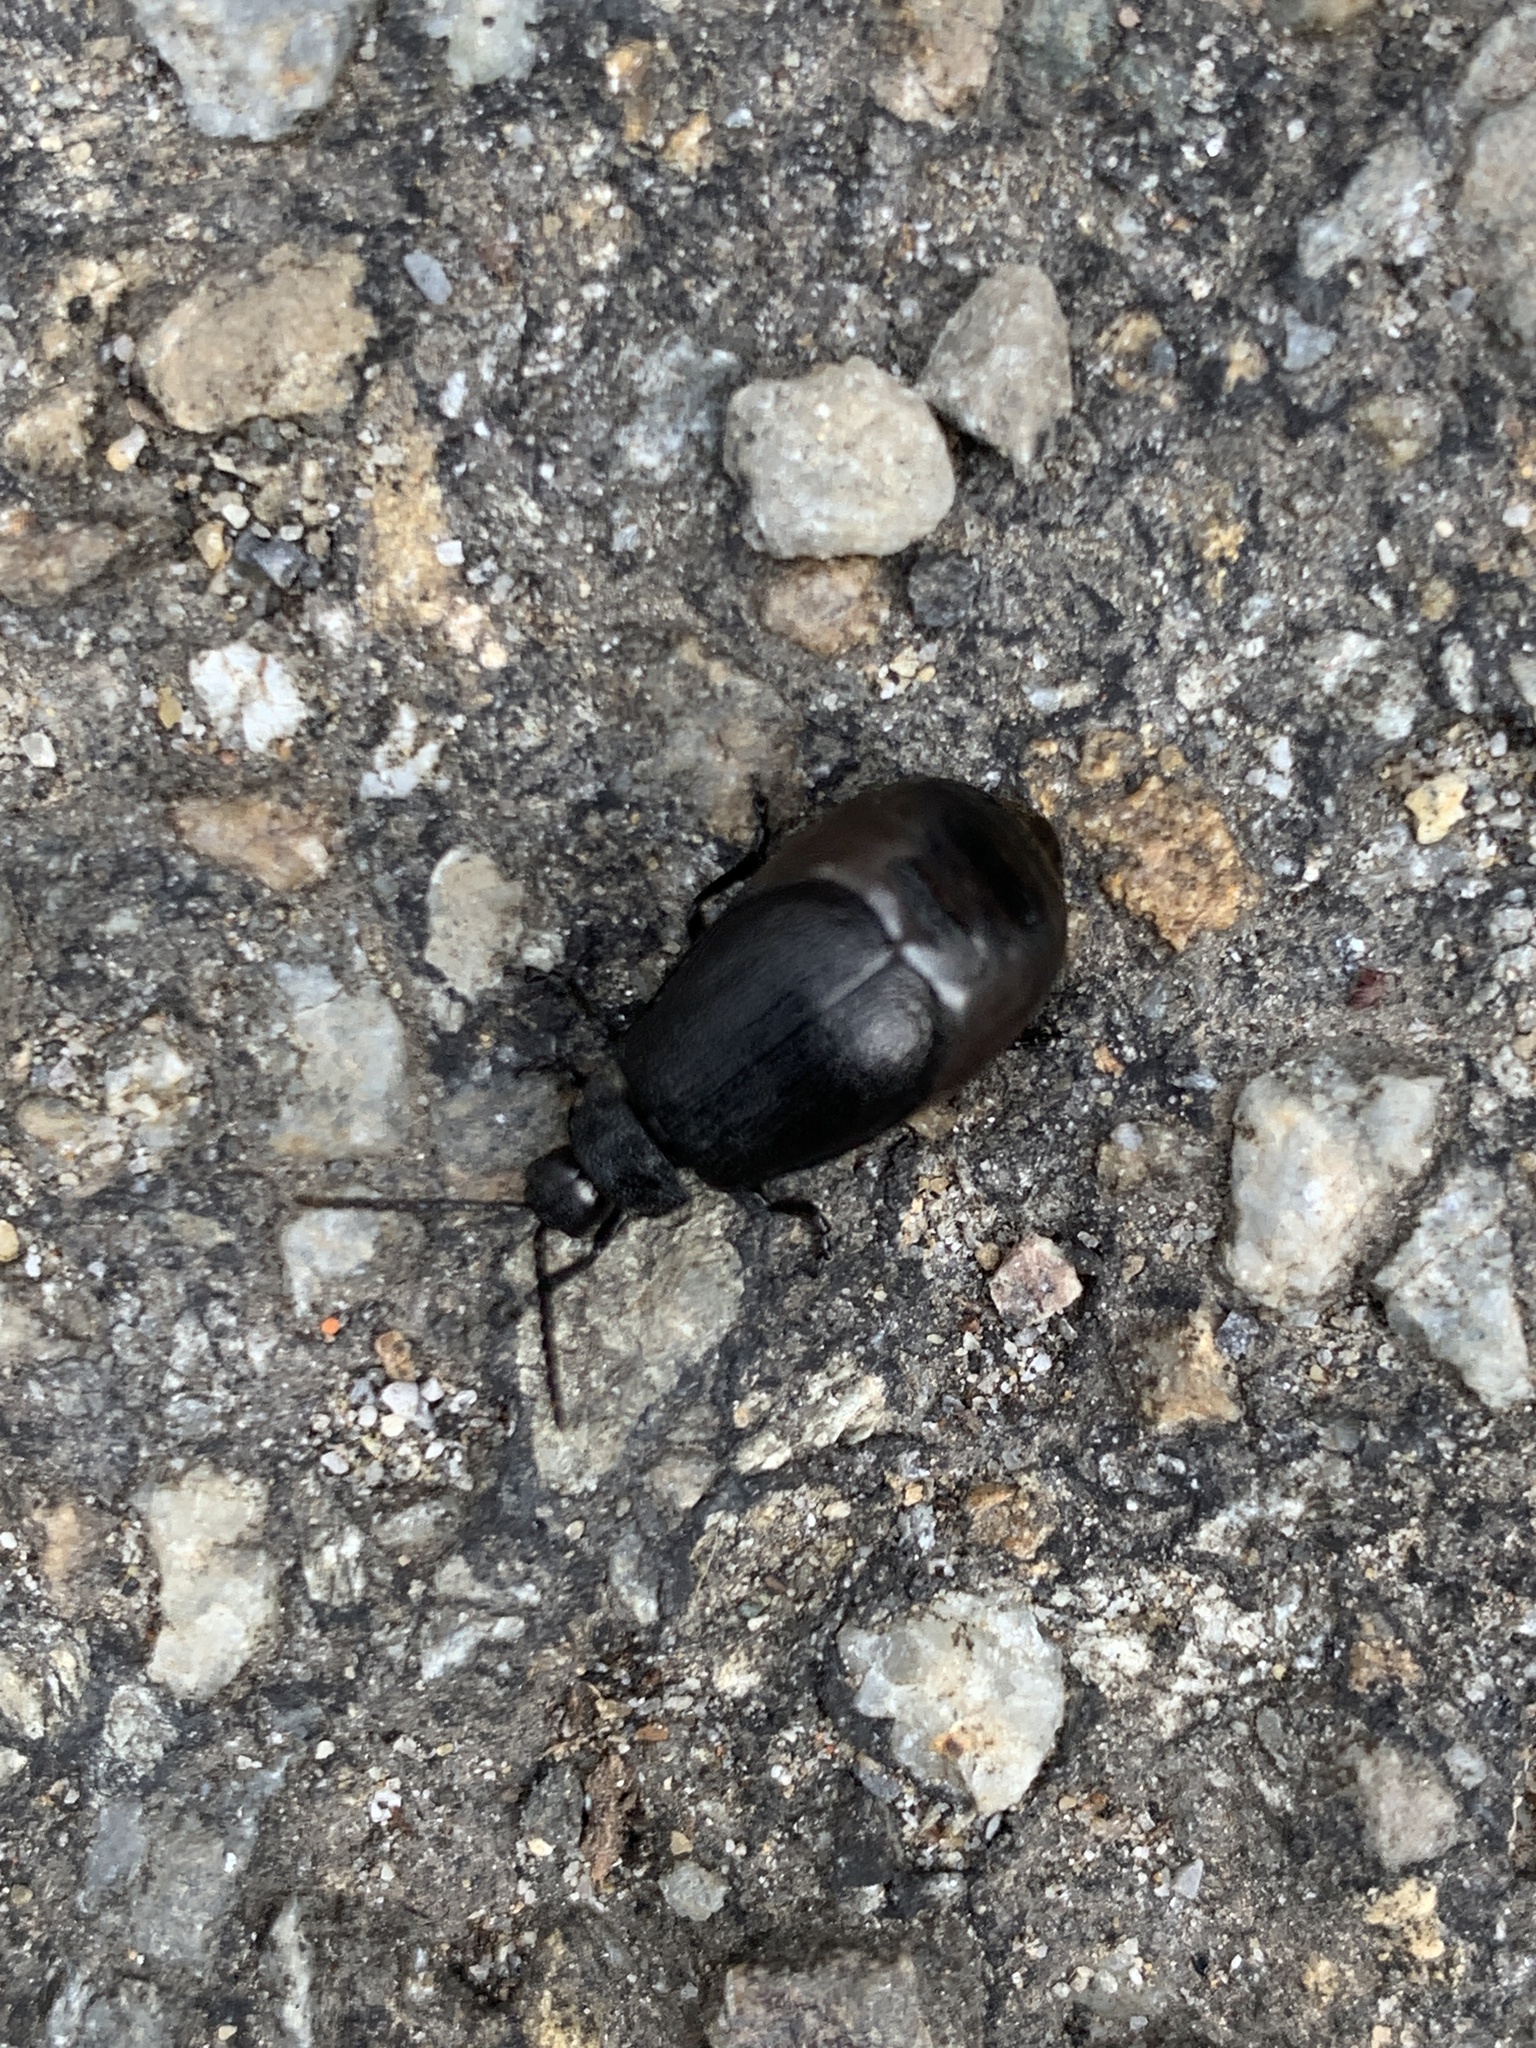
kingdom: Animalia
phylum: Arthropoda
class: Insecta
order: Coleoptera
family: Chrysomelidae
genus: Galeruca
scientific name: Galeruca tanaceti
